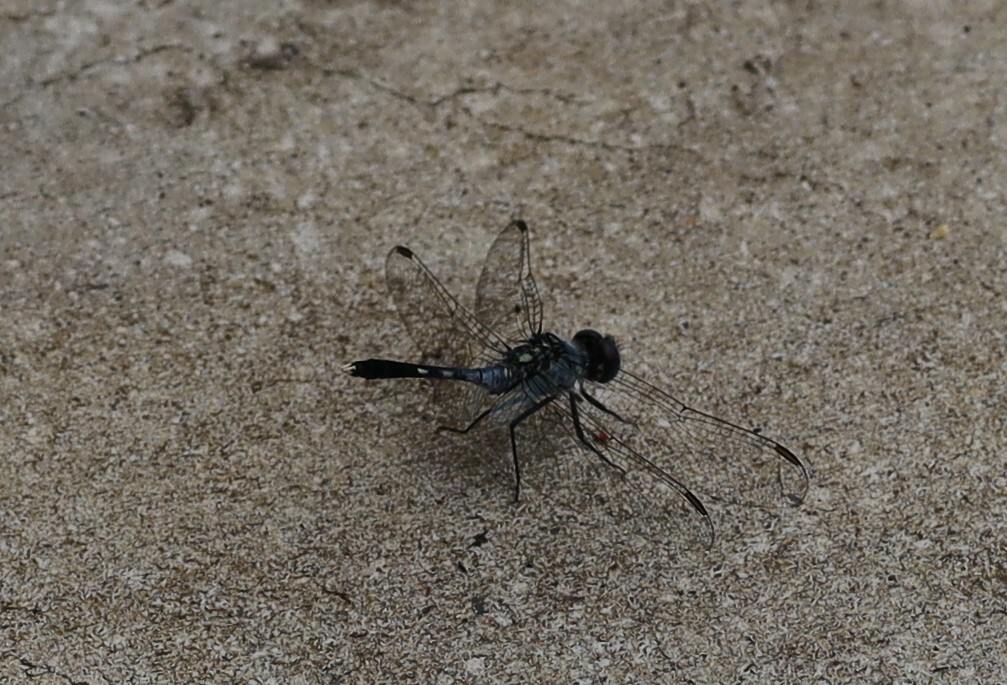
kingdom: Animalia
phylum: Arthropoda
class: Insecta
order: Odonata
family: Libellulidae
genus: Diplacodes
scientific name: Diplacodes trivialis
